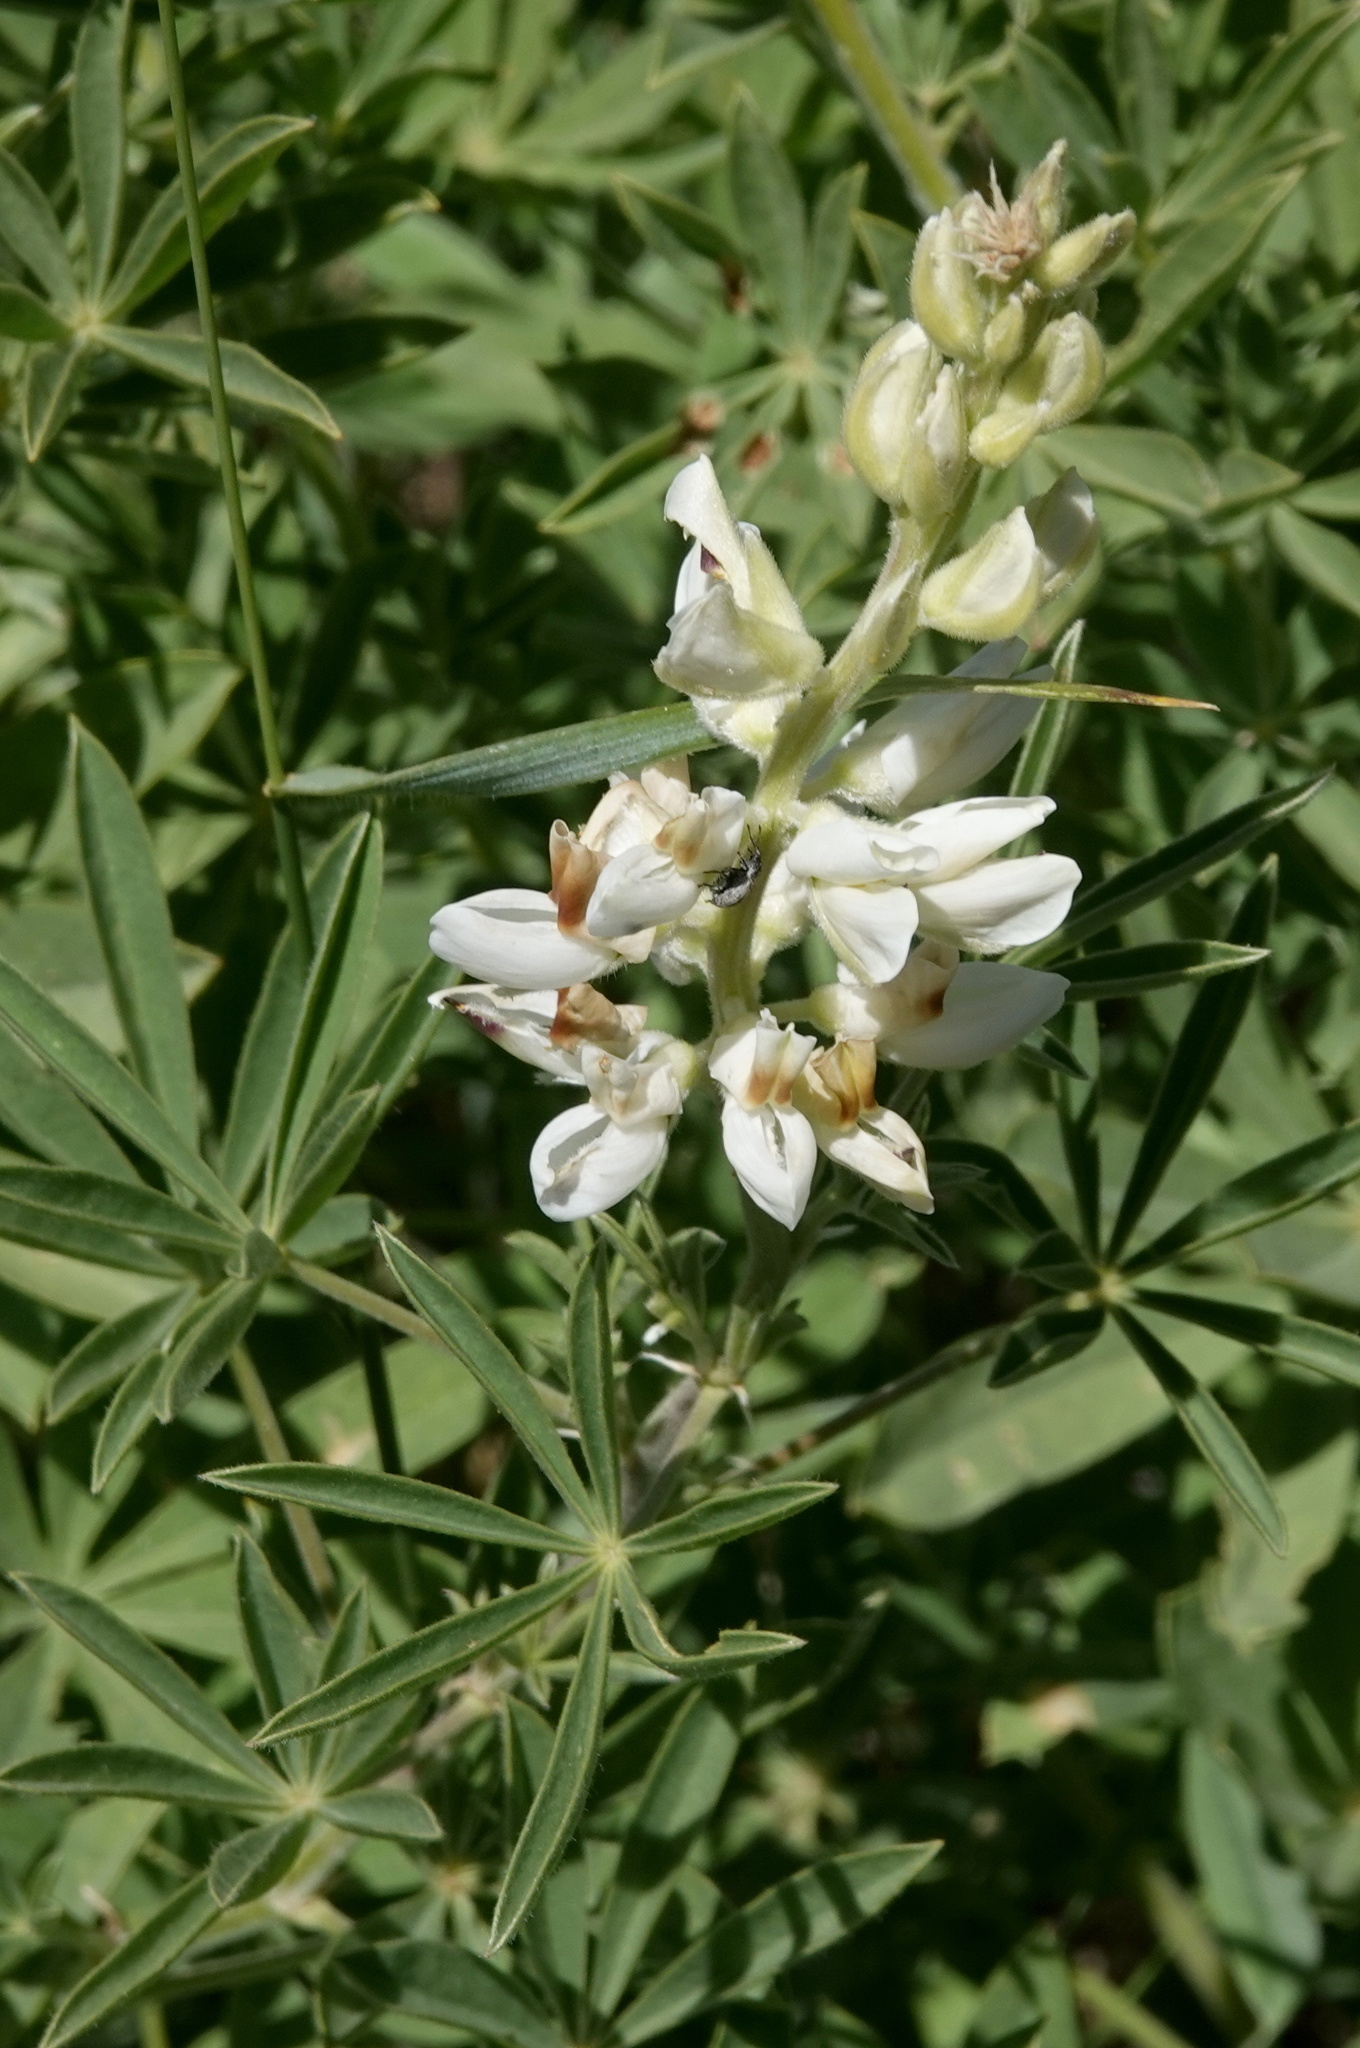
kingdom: Plantae
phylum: Tracheophyta
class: Magnoliopsida
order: Fabales
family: Fabaceae
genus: Lupinus
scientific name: Lupinus barbiger
